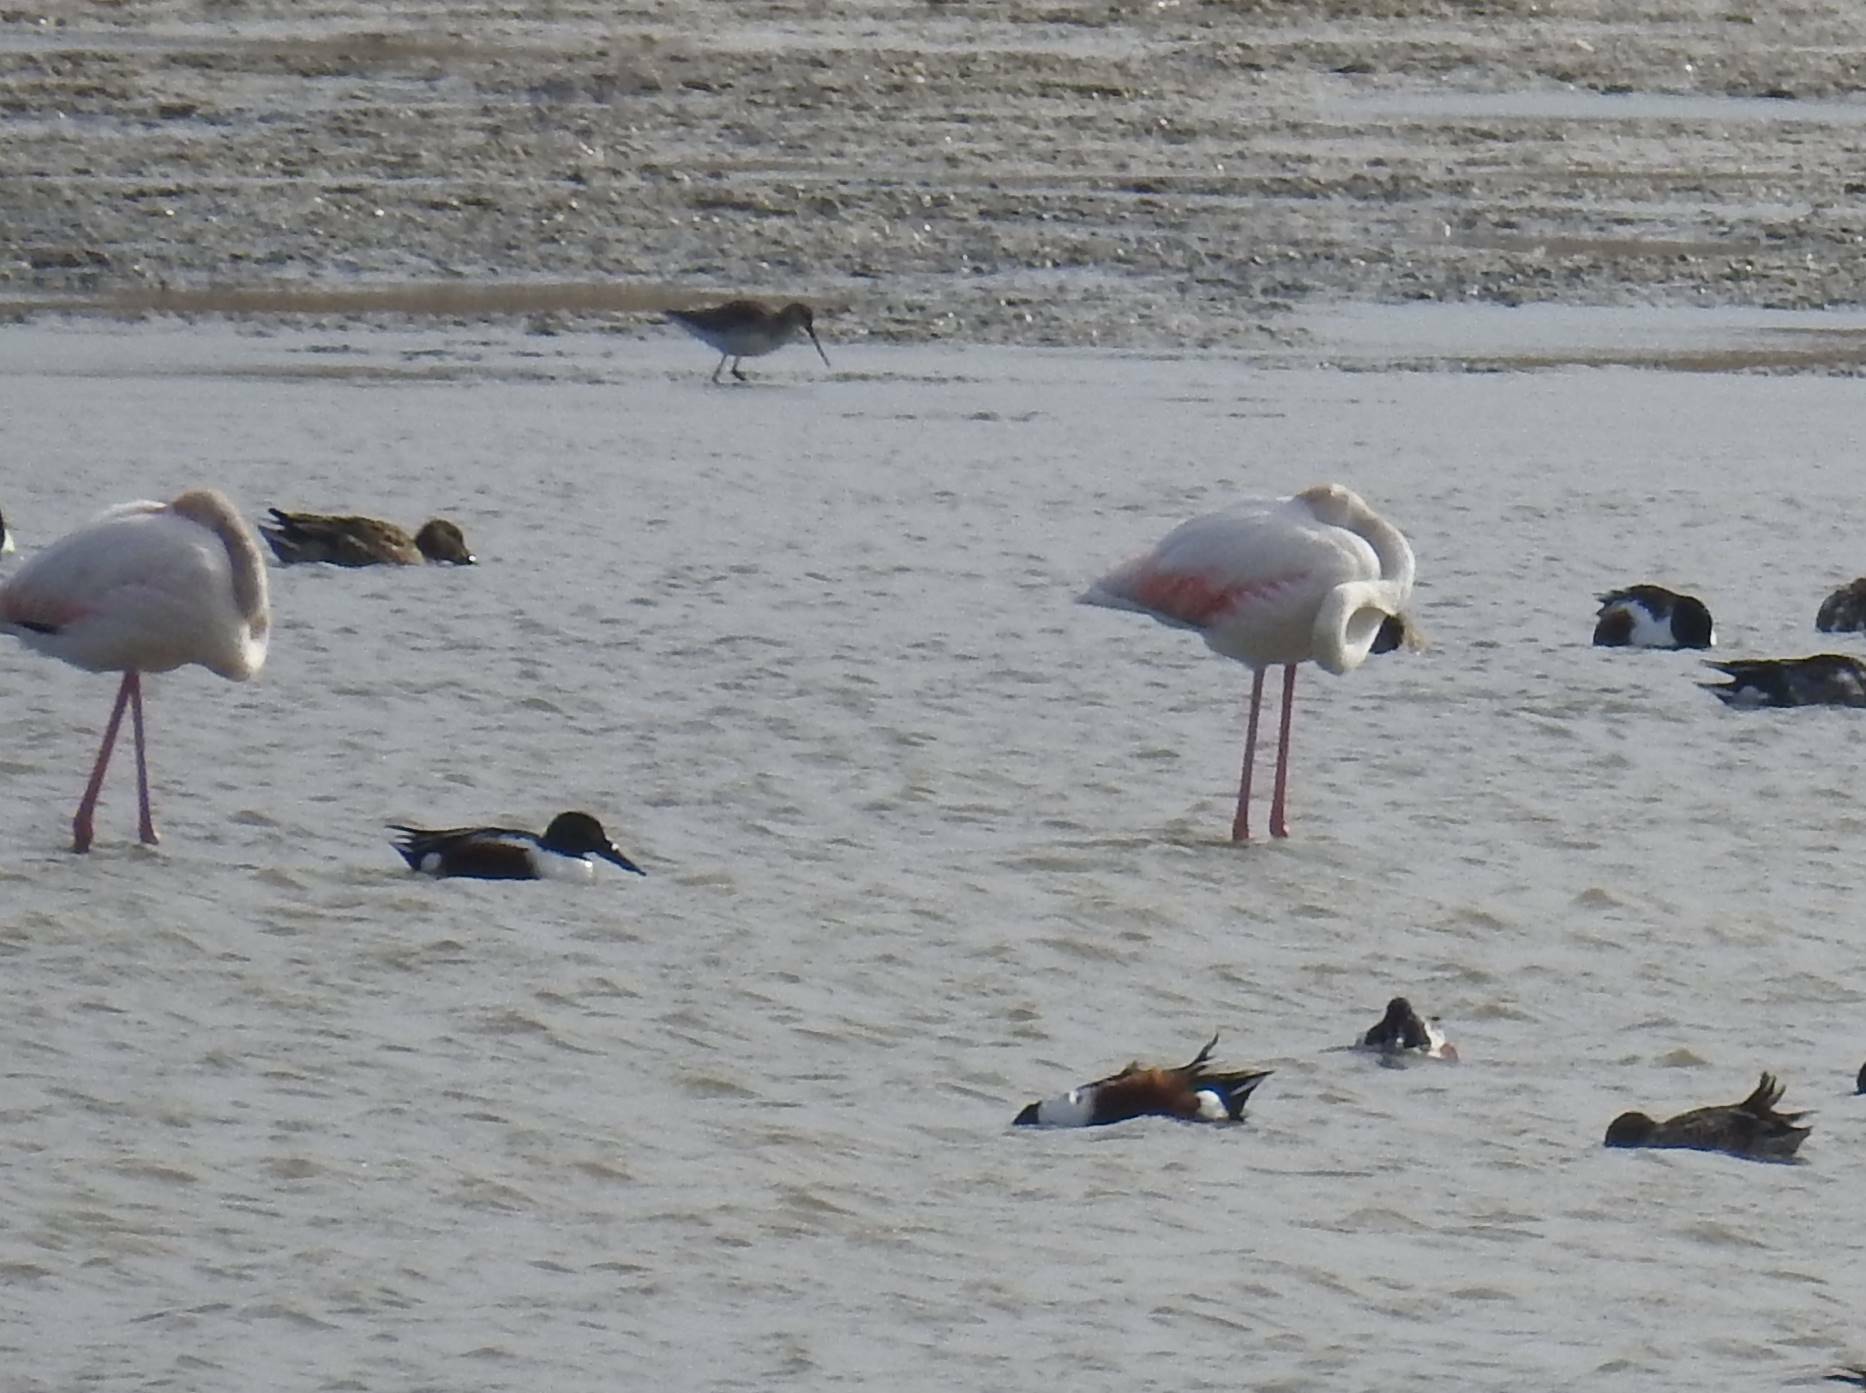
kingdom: Animalia
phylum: Chordata
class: Aves
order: Phoenicopteriformes
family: Phoenicopteridae
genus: Phoenicopterus
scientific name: Phoenicopterus roseus
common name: Greater flamingo
